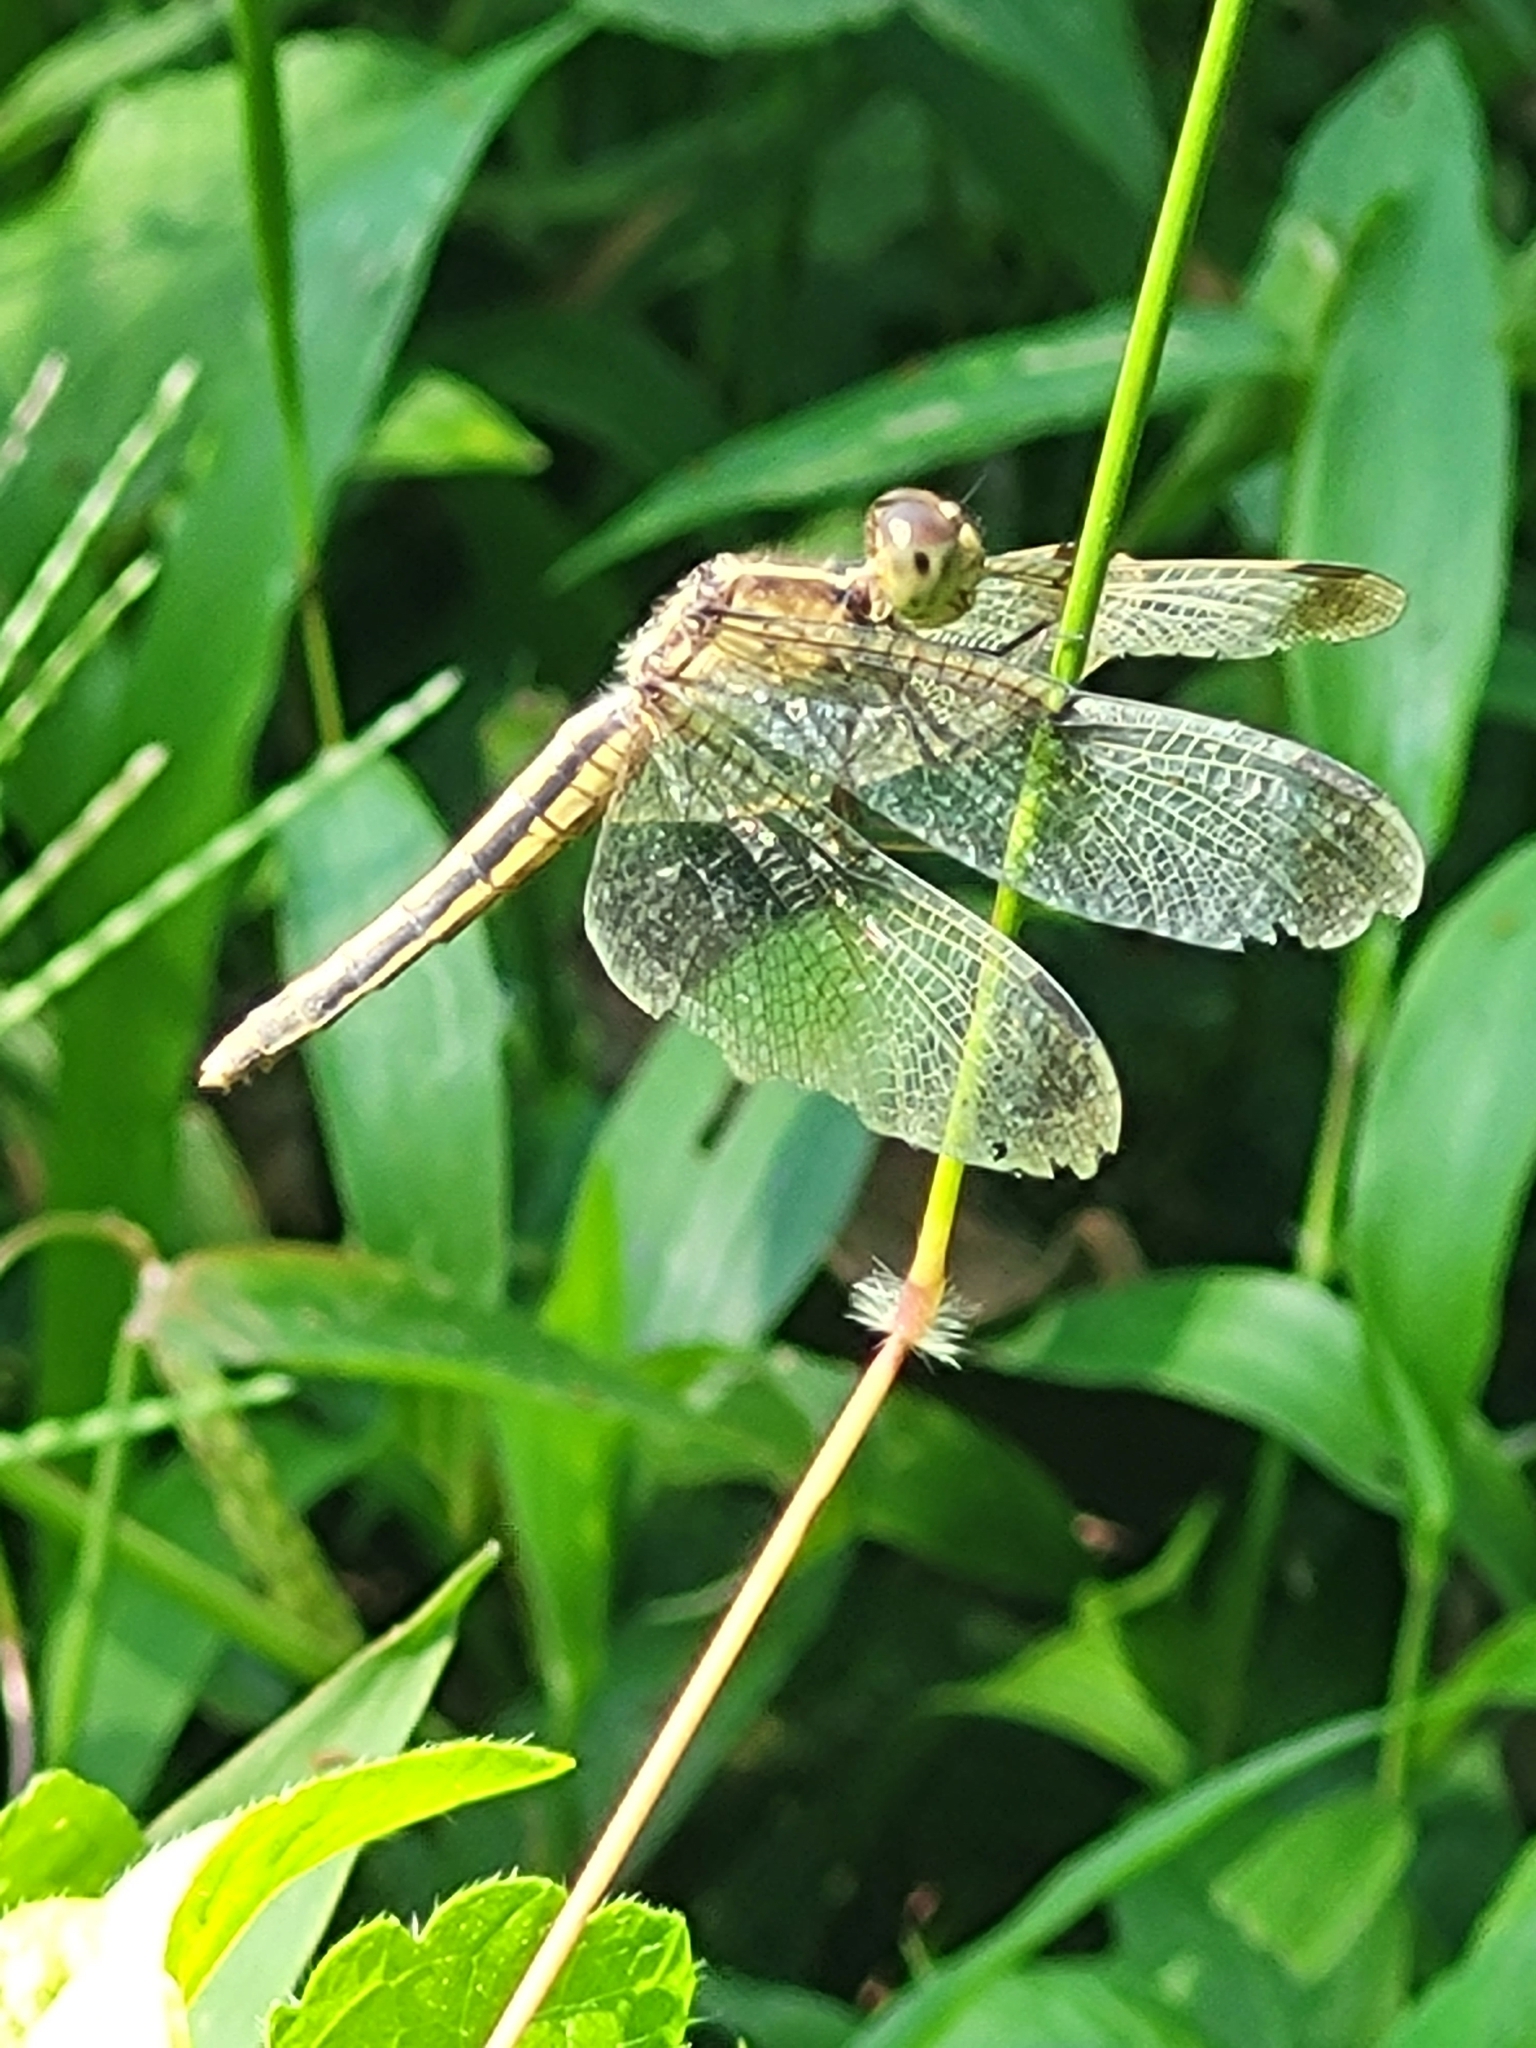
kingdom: Animalia
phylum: Arthropoda
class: Insecta
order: Odonata
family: Libellulidae
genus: Neurothemis
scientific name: Neurothemis tullia
